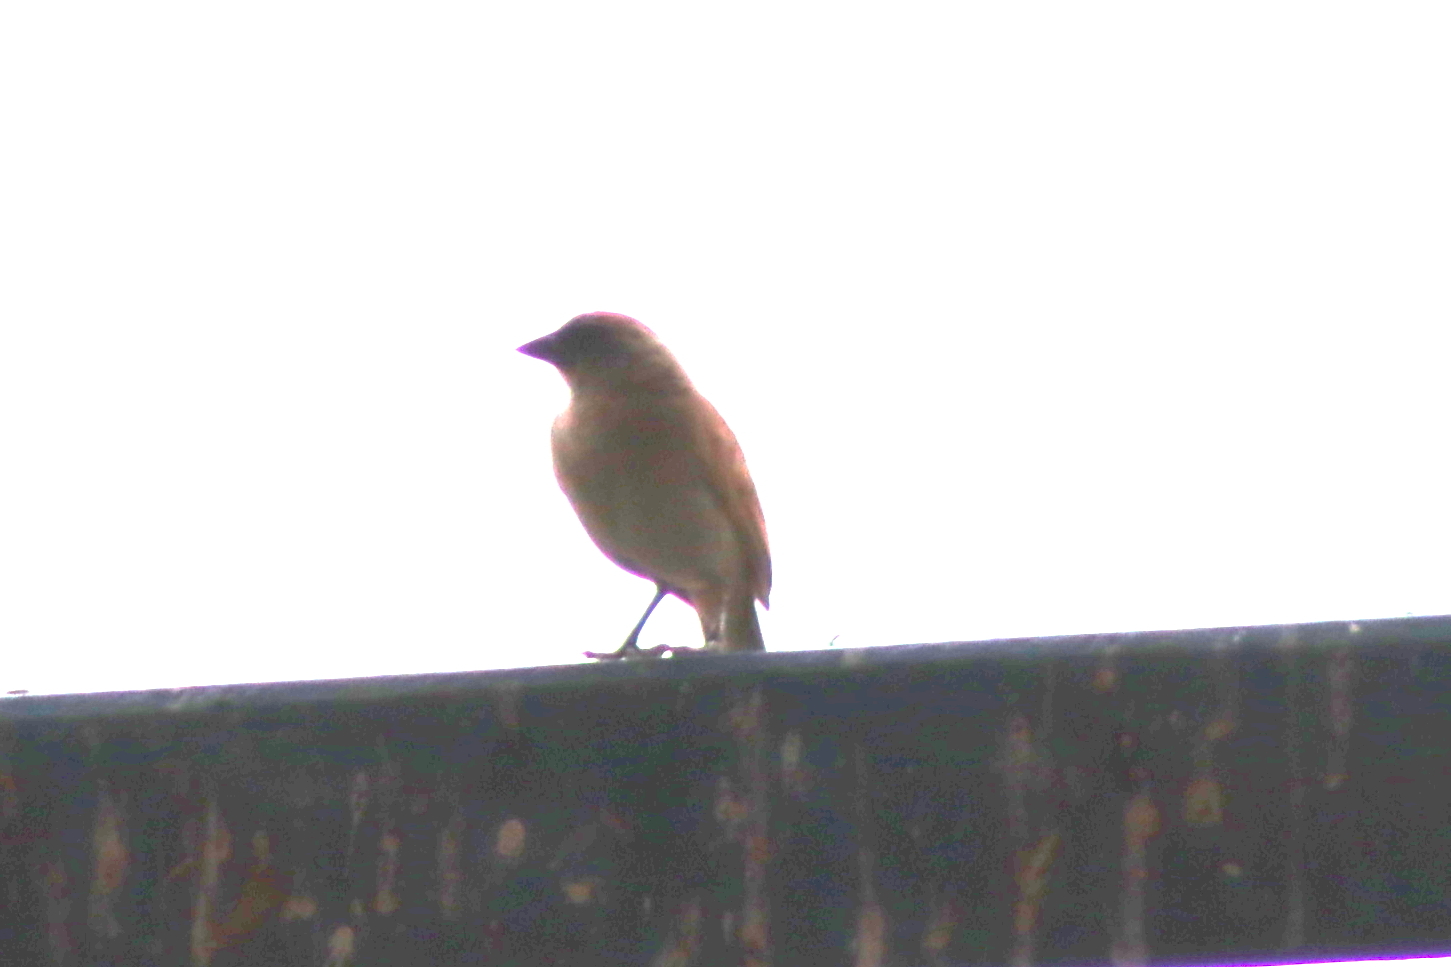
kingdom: Animalia
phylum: Chordata
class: Aves
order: Passeriformes
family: Icteridae
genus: Agelaioides
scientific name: Agelaioides badius
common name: Baywing
